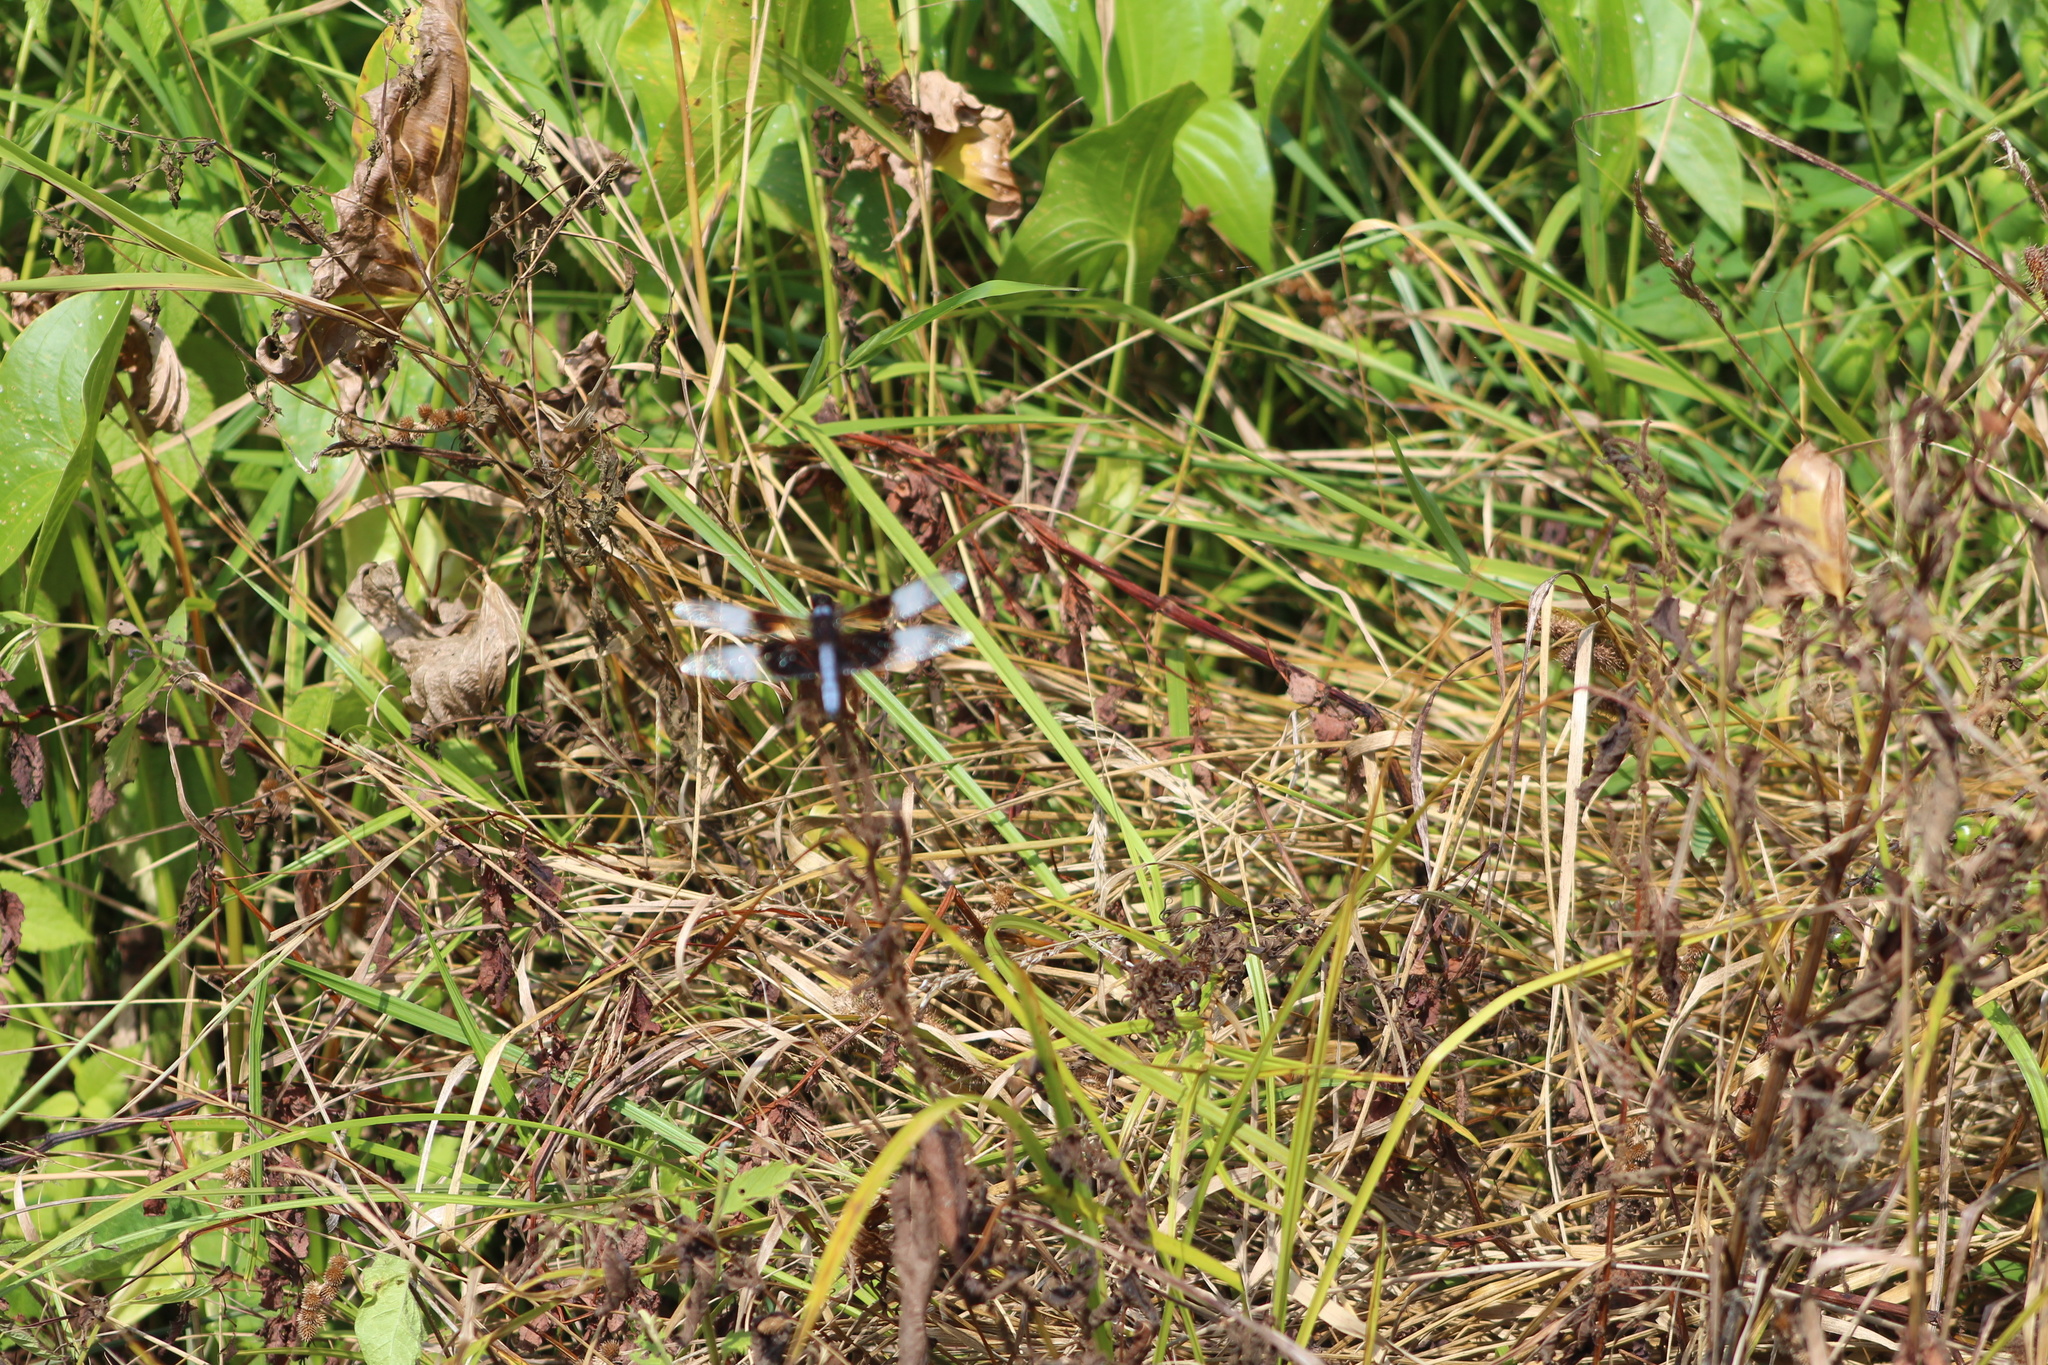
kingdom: Animalia
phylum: Arthropoda
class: Insecta
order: Odonata
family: Libellulidae
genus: Libellula
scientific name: Libellula luctuosa
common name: Widow skimmer
